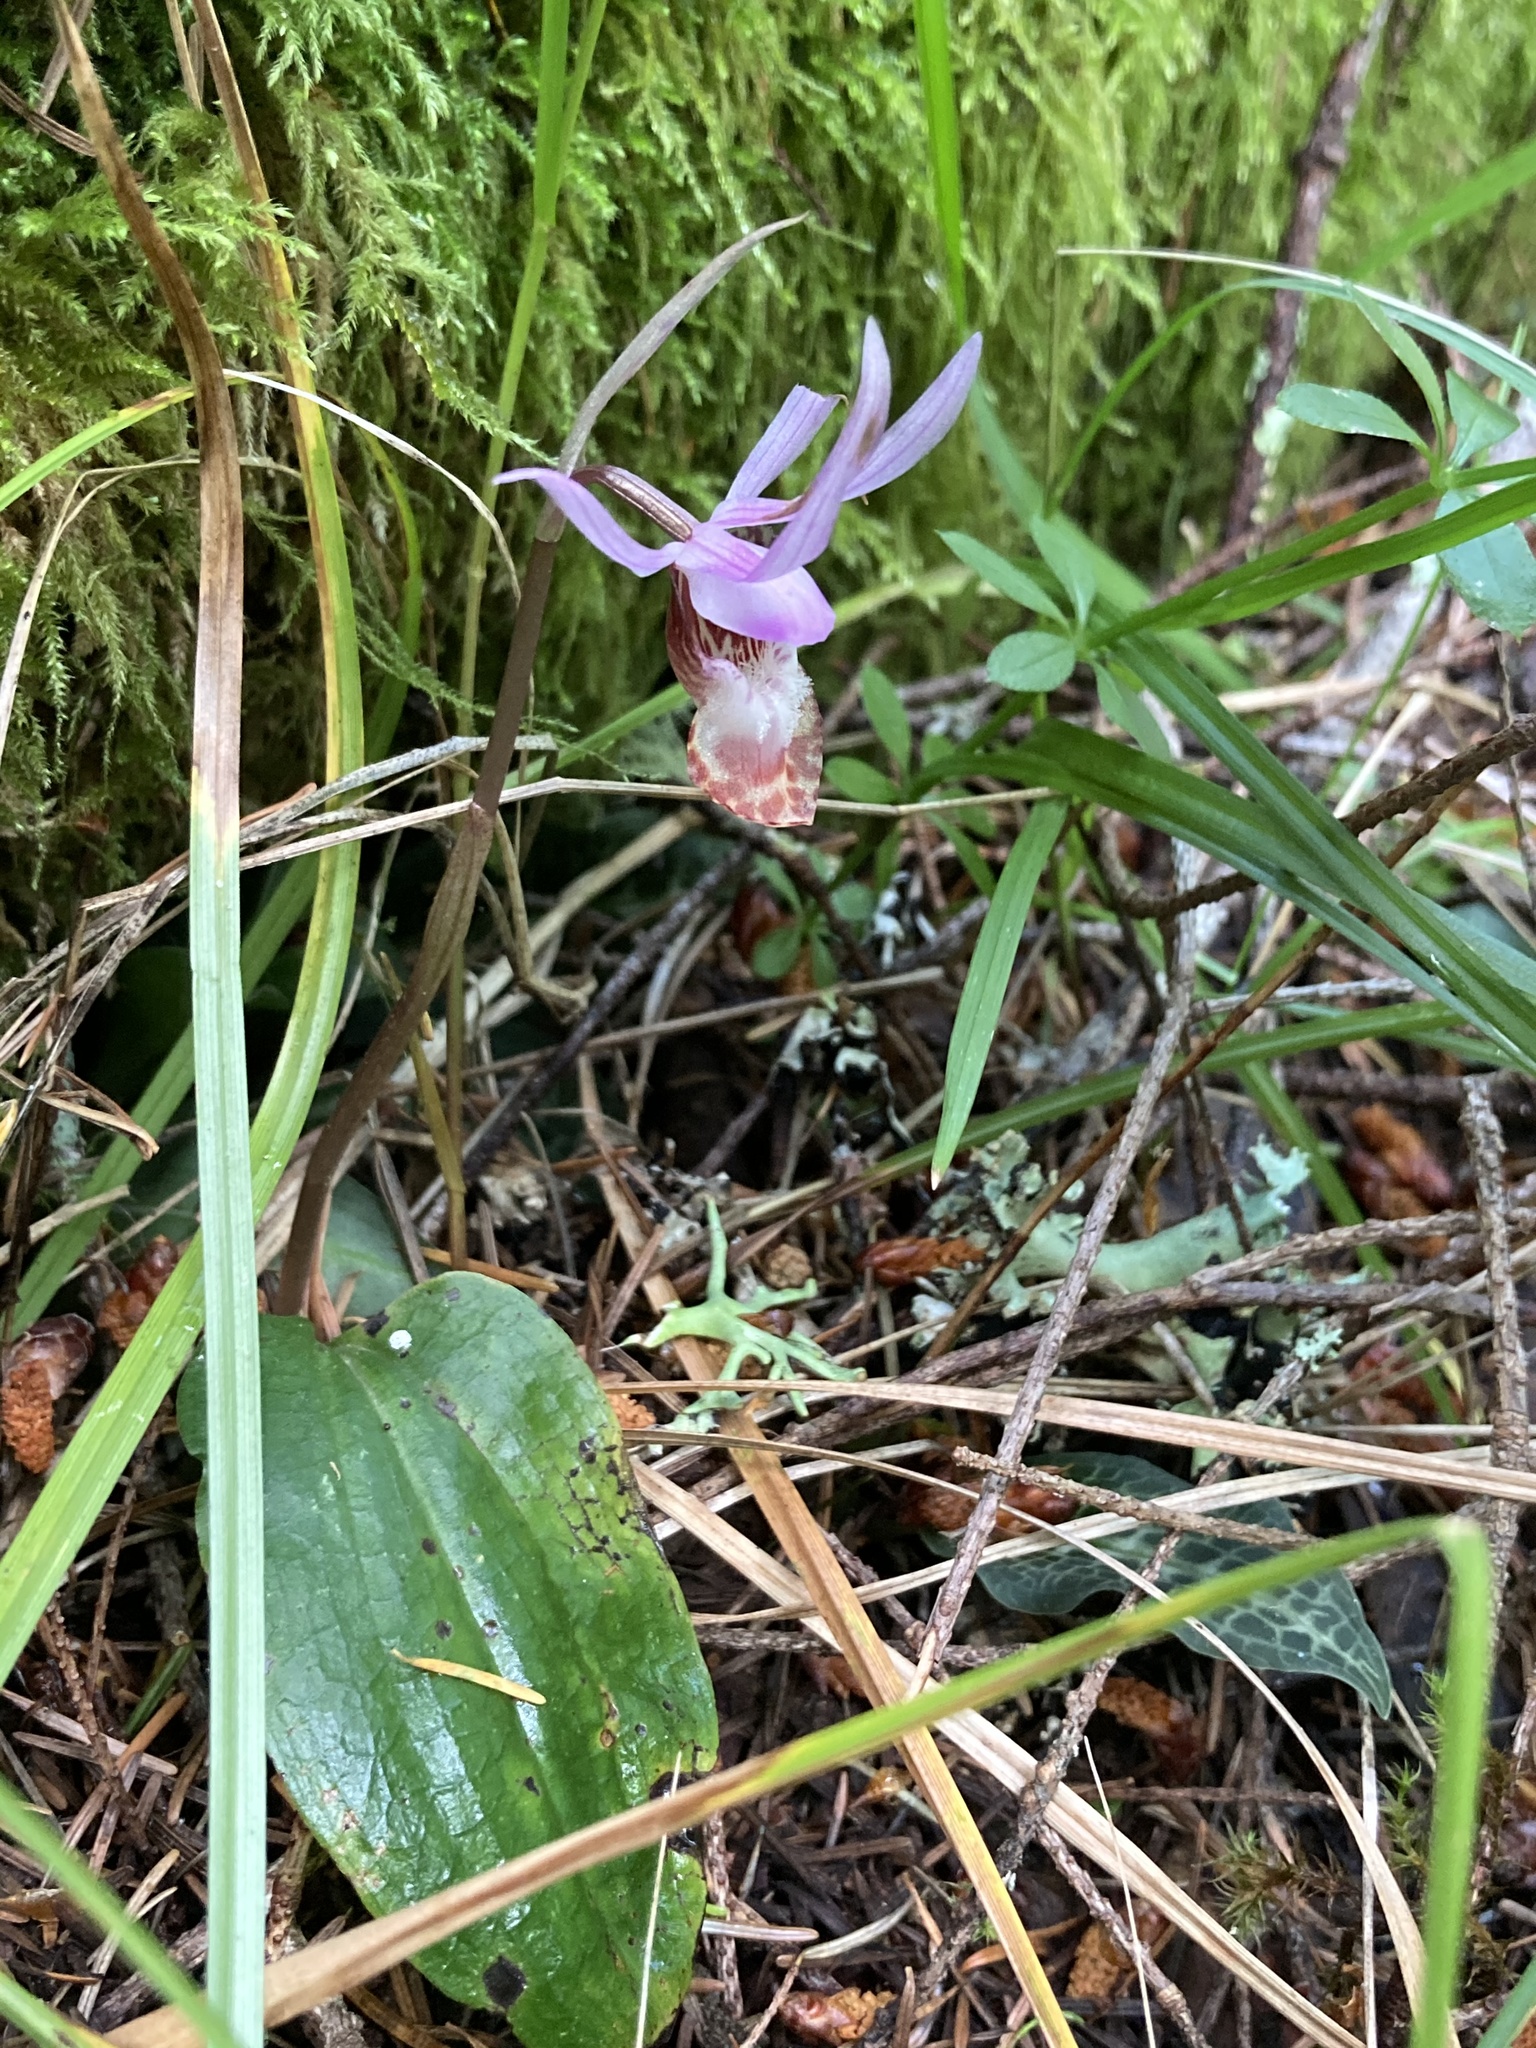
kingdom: Plantae
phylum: Tracheophyta
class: Liliopsida
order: Asparagales
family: Orchidaceae
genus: Calypso
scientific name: Calypso bulbosa
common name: Calypso
